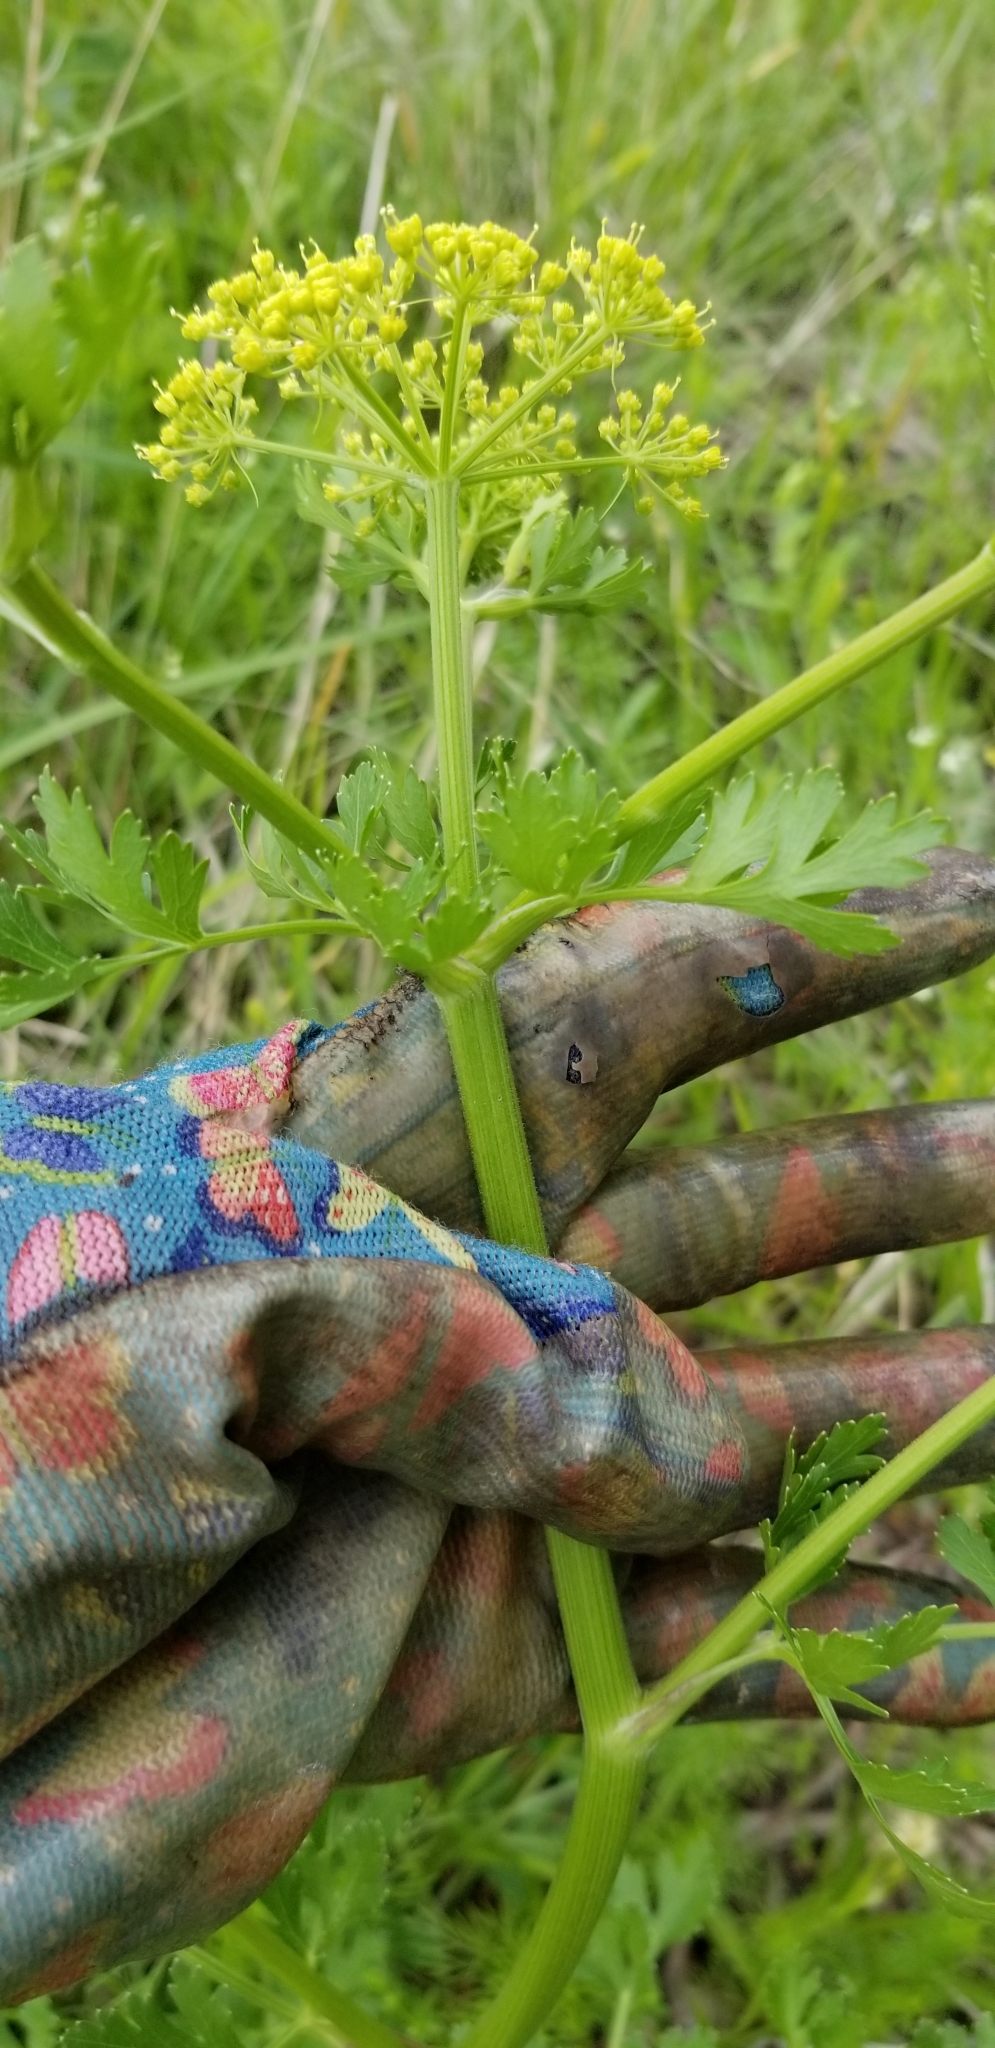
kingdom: Plantae
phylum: Tracheophyta
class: Magnoliopsida
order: Apiales
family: Apiaceae
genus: Polytaenia
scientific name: Polytaenia texana
